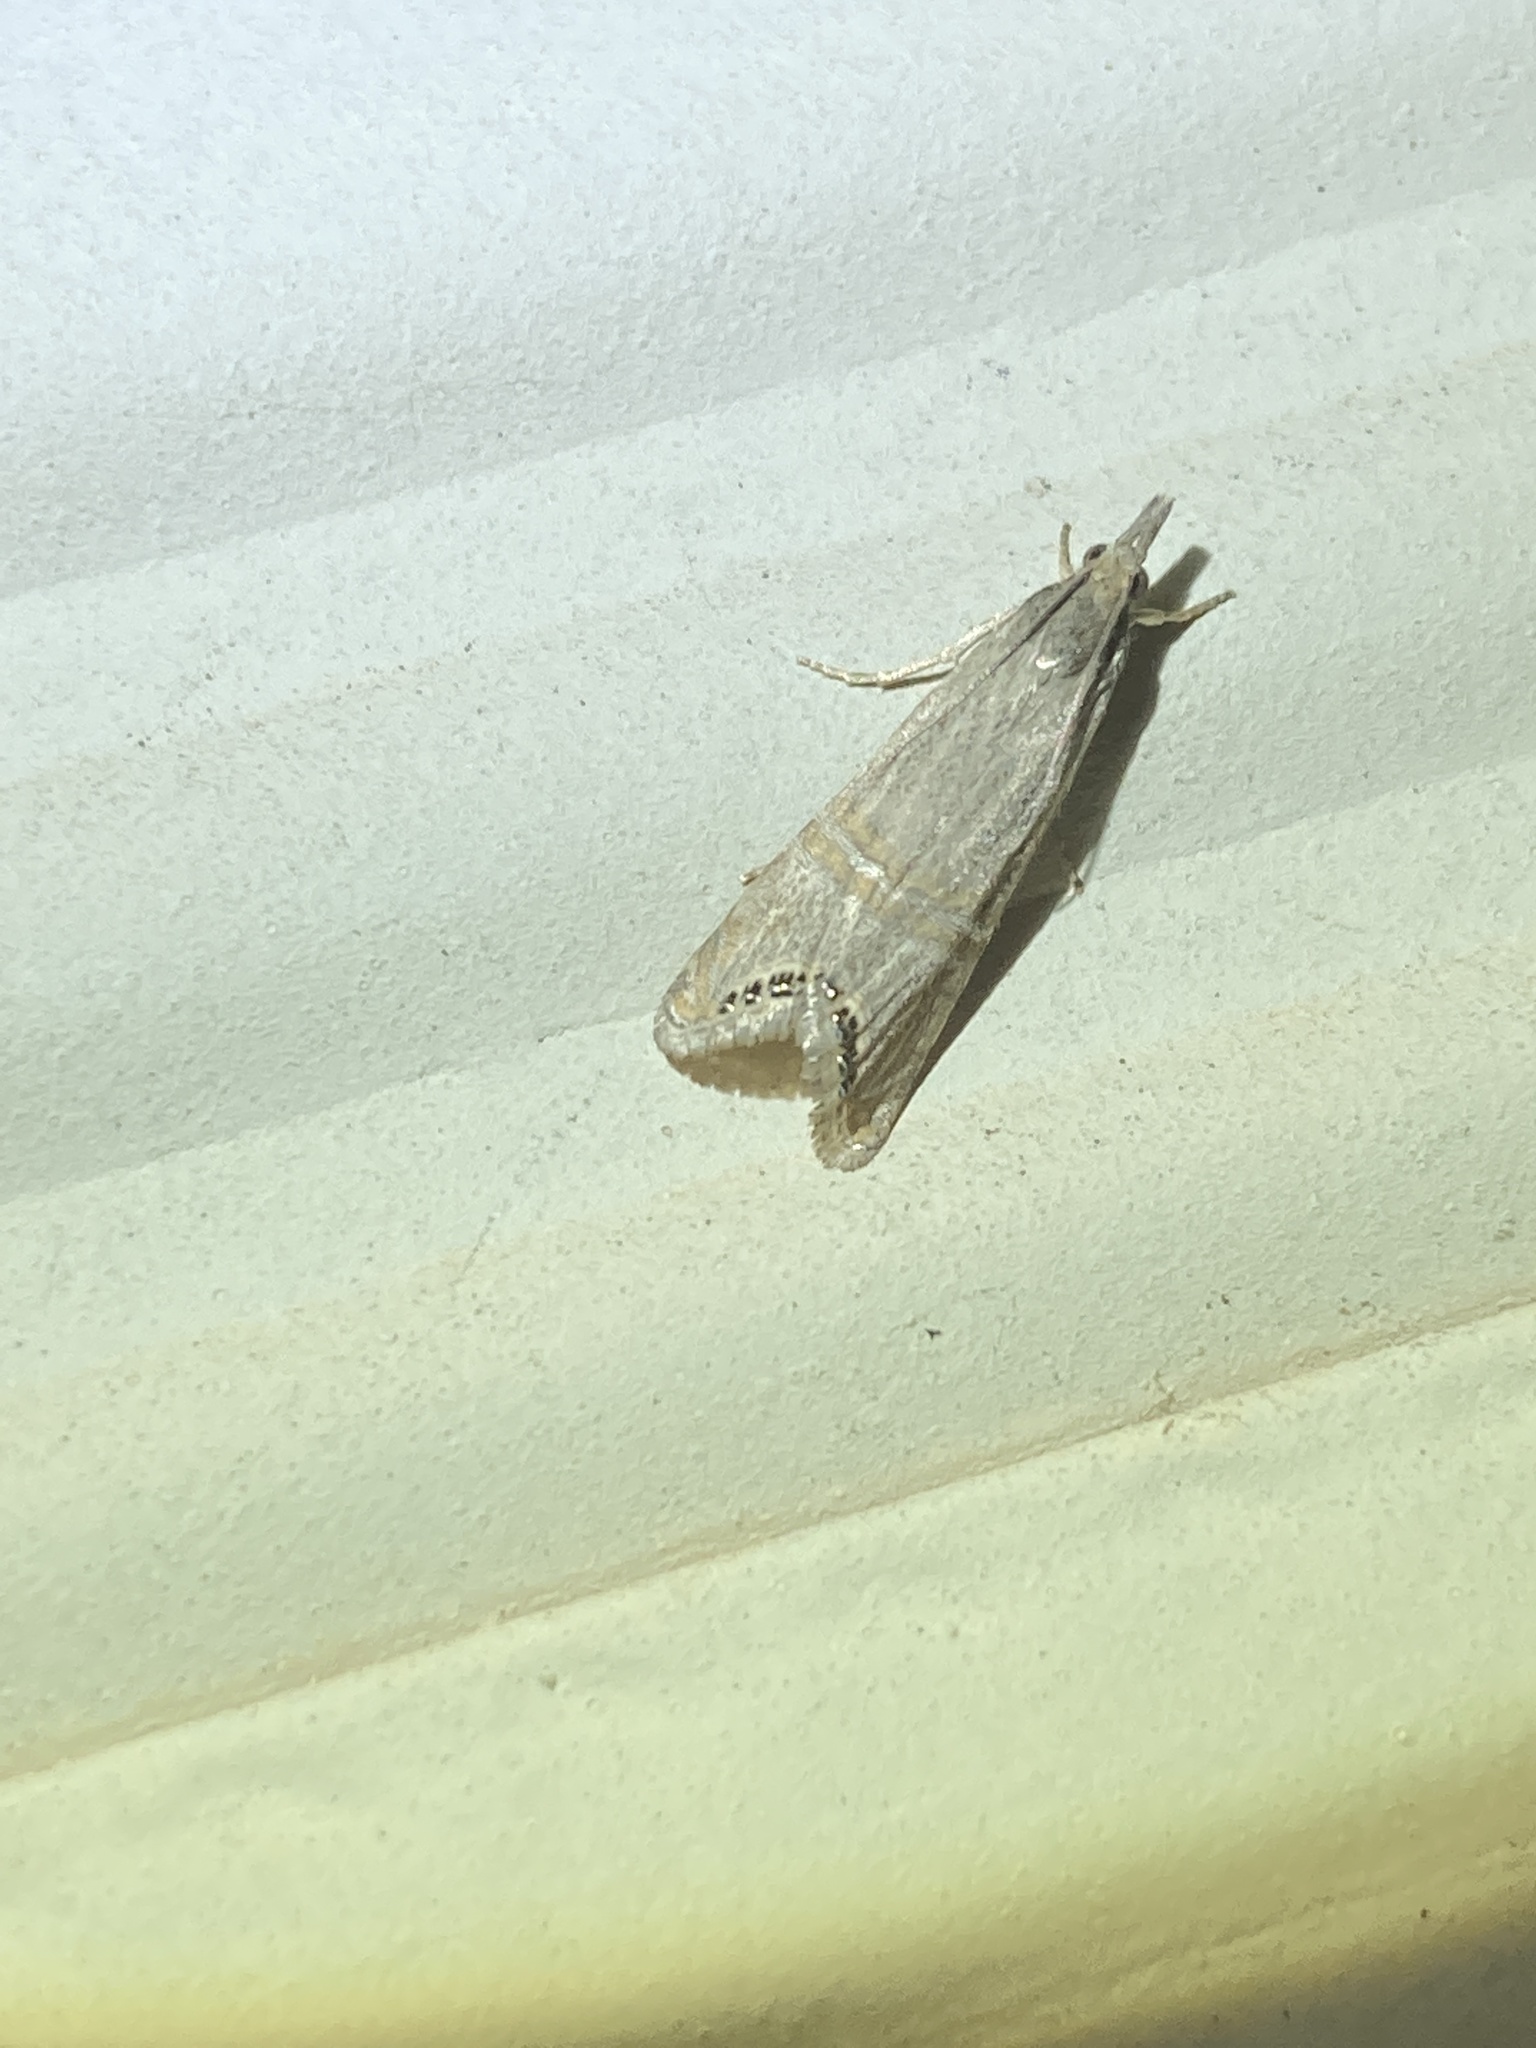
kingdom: Animalia
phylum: Arthropoda
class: Insecta
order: Lepidoptera
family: Crambidae
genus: Euchromius
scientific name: Euchromius ocellea
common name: Necklace veneer moth
